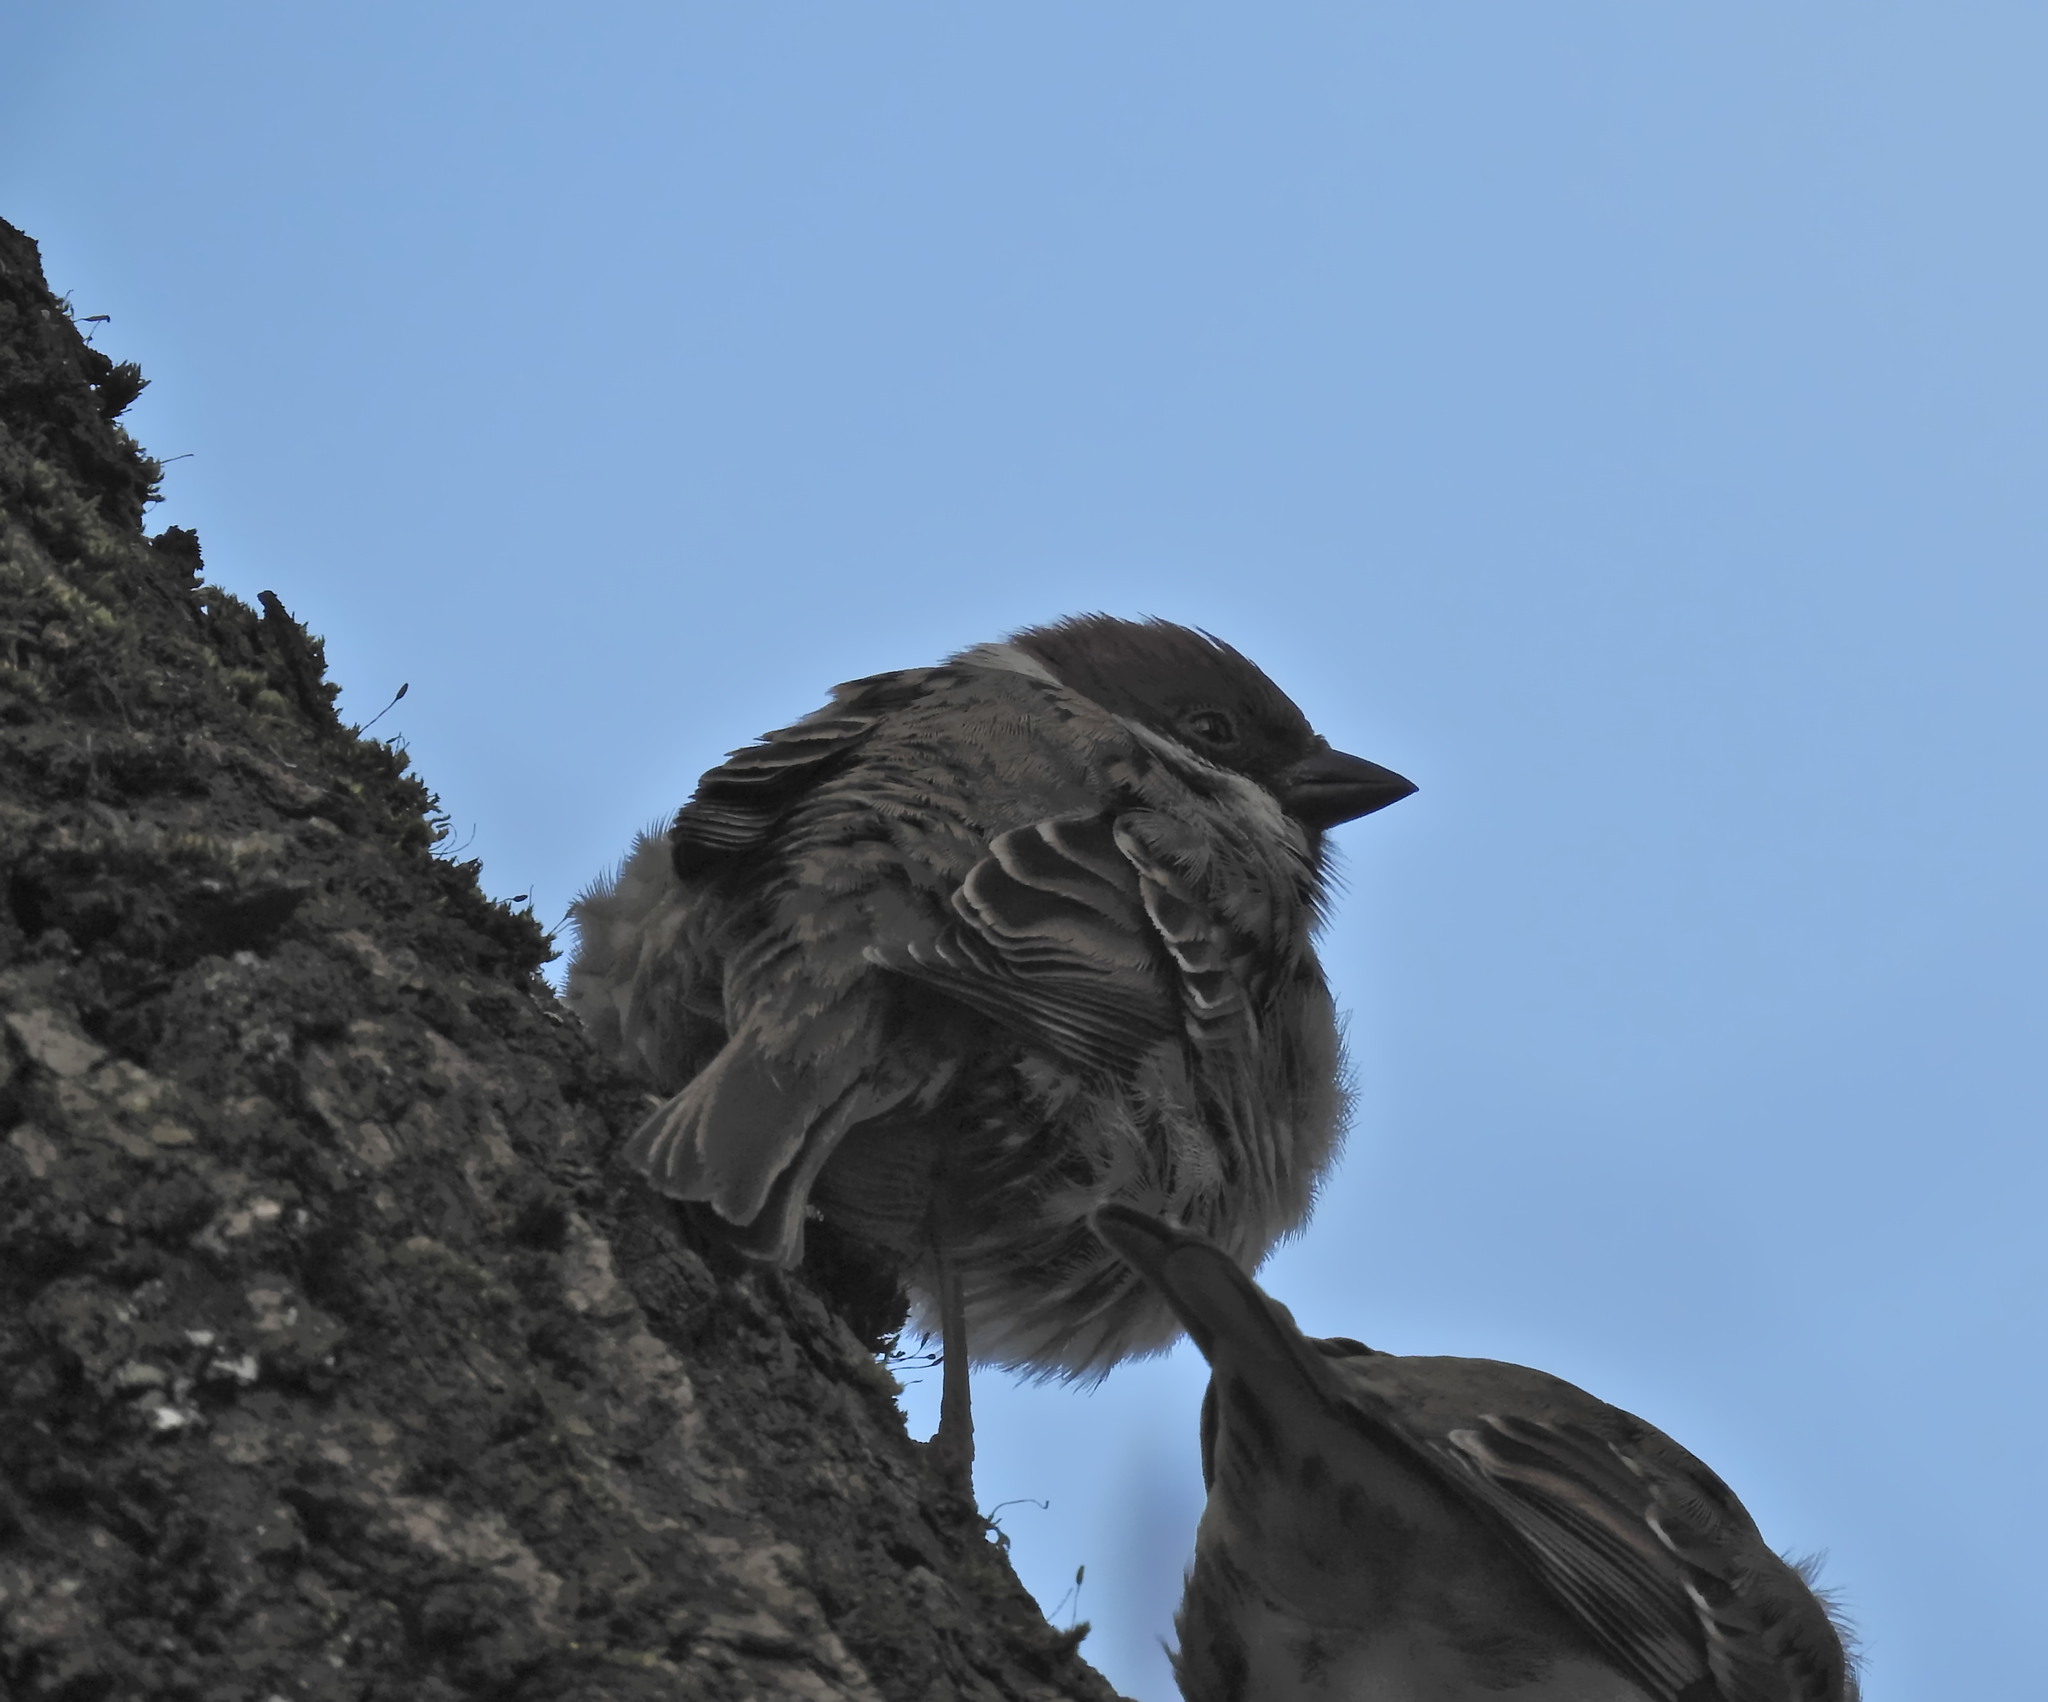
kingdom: Animalia
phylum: Chordata
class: Aves
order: Passeriformes
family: Passeridae
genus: Passer
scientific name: Passer montanus
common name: Eurasian tree sparrow
